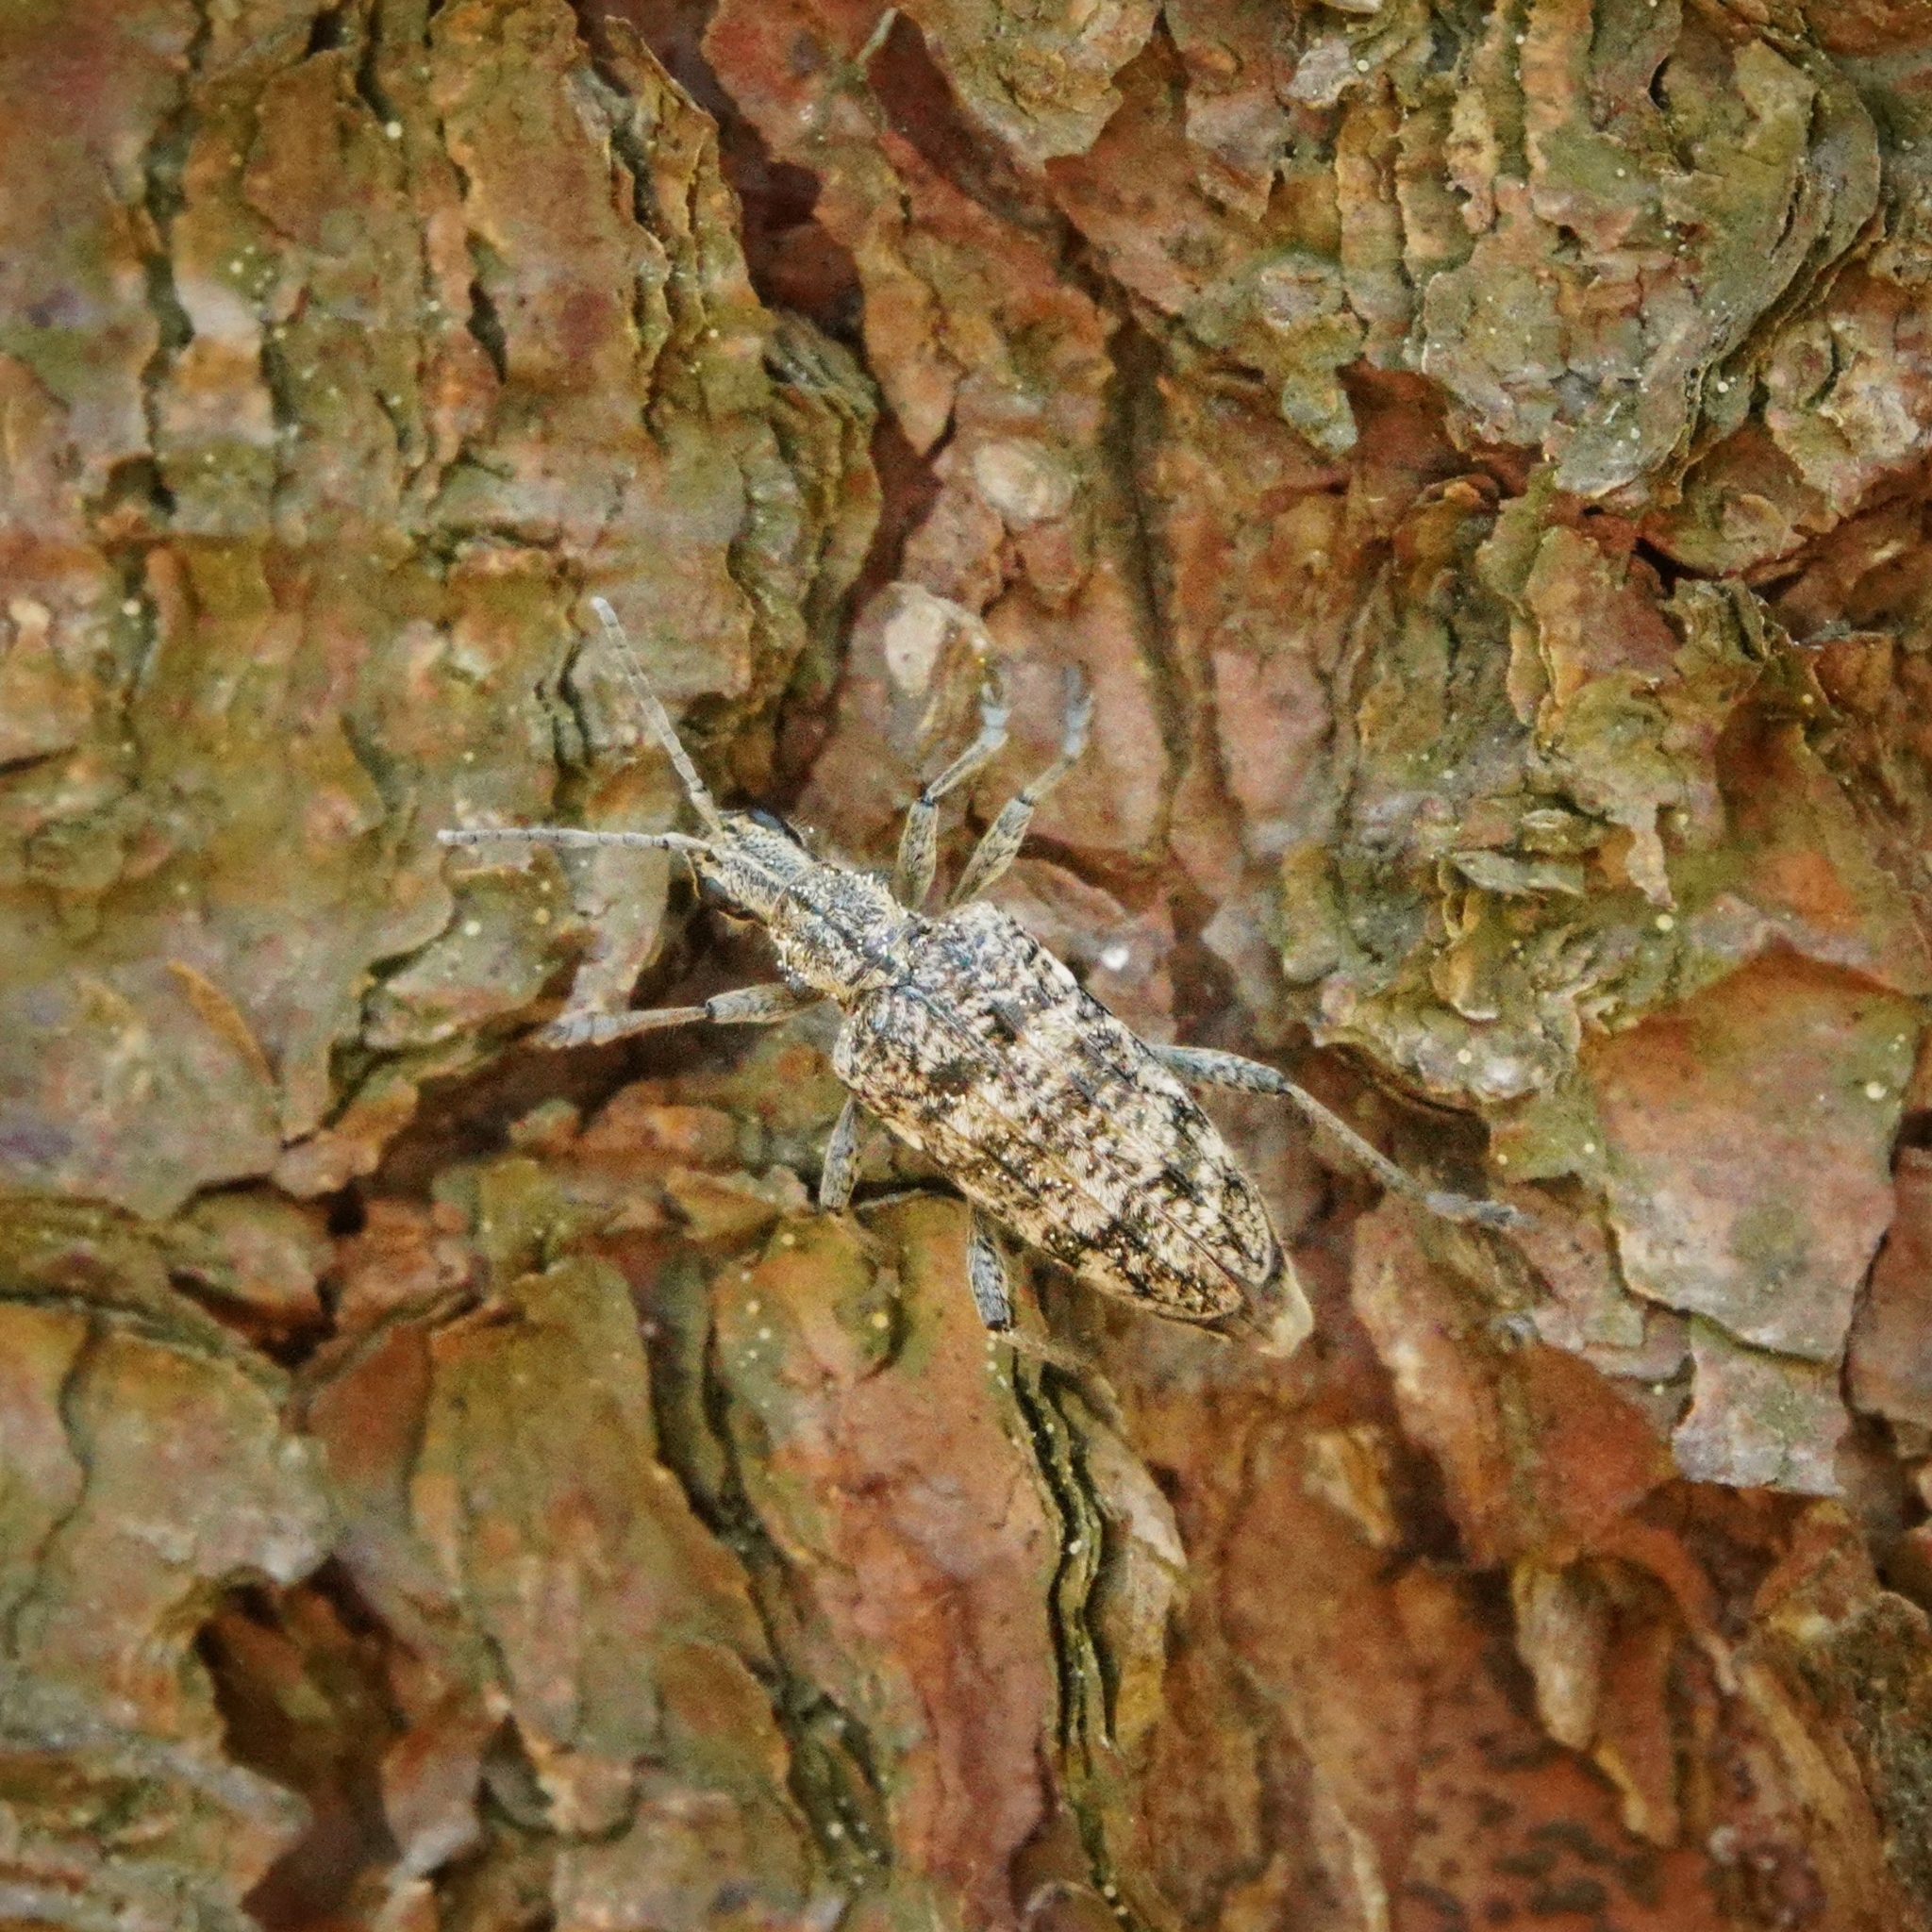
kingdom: Animalia
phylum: Arthropoda
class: Insecta
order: Coleoptera
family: Cerambycidae
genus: Rhagium
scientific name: Rhagium inquisitor
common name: Ribbed pine borer
